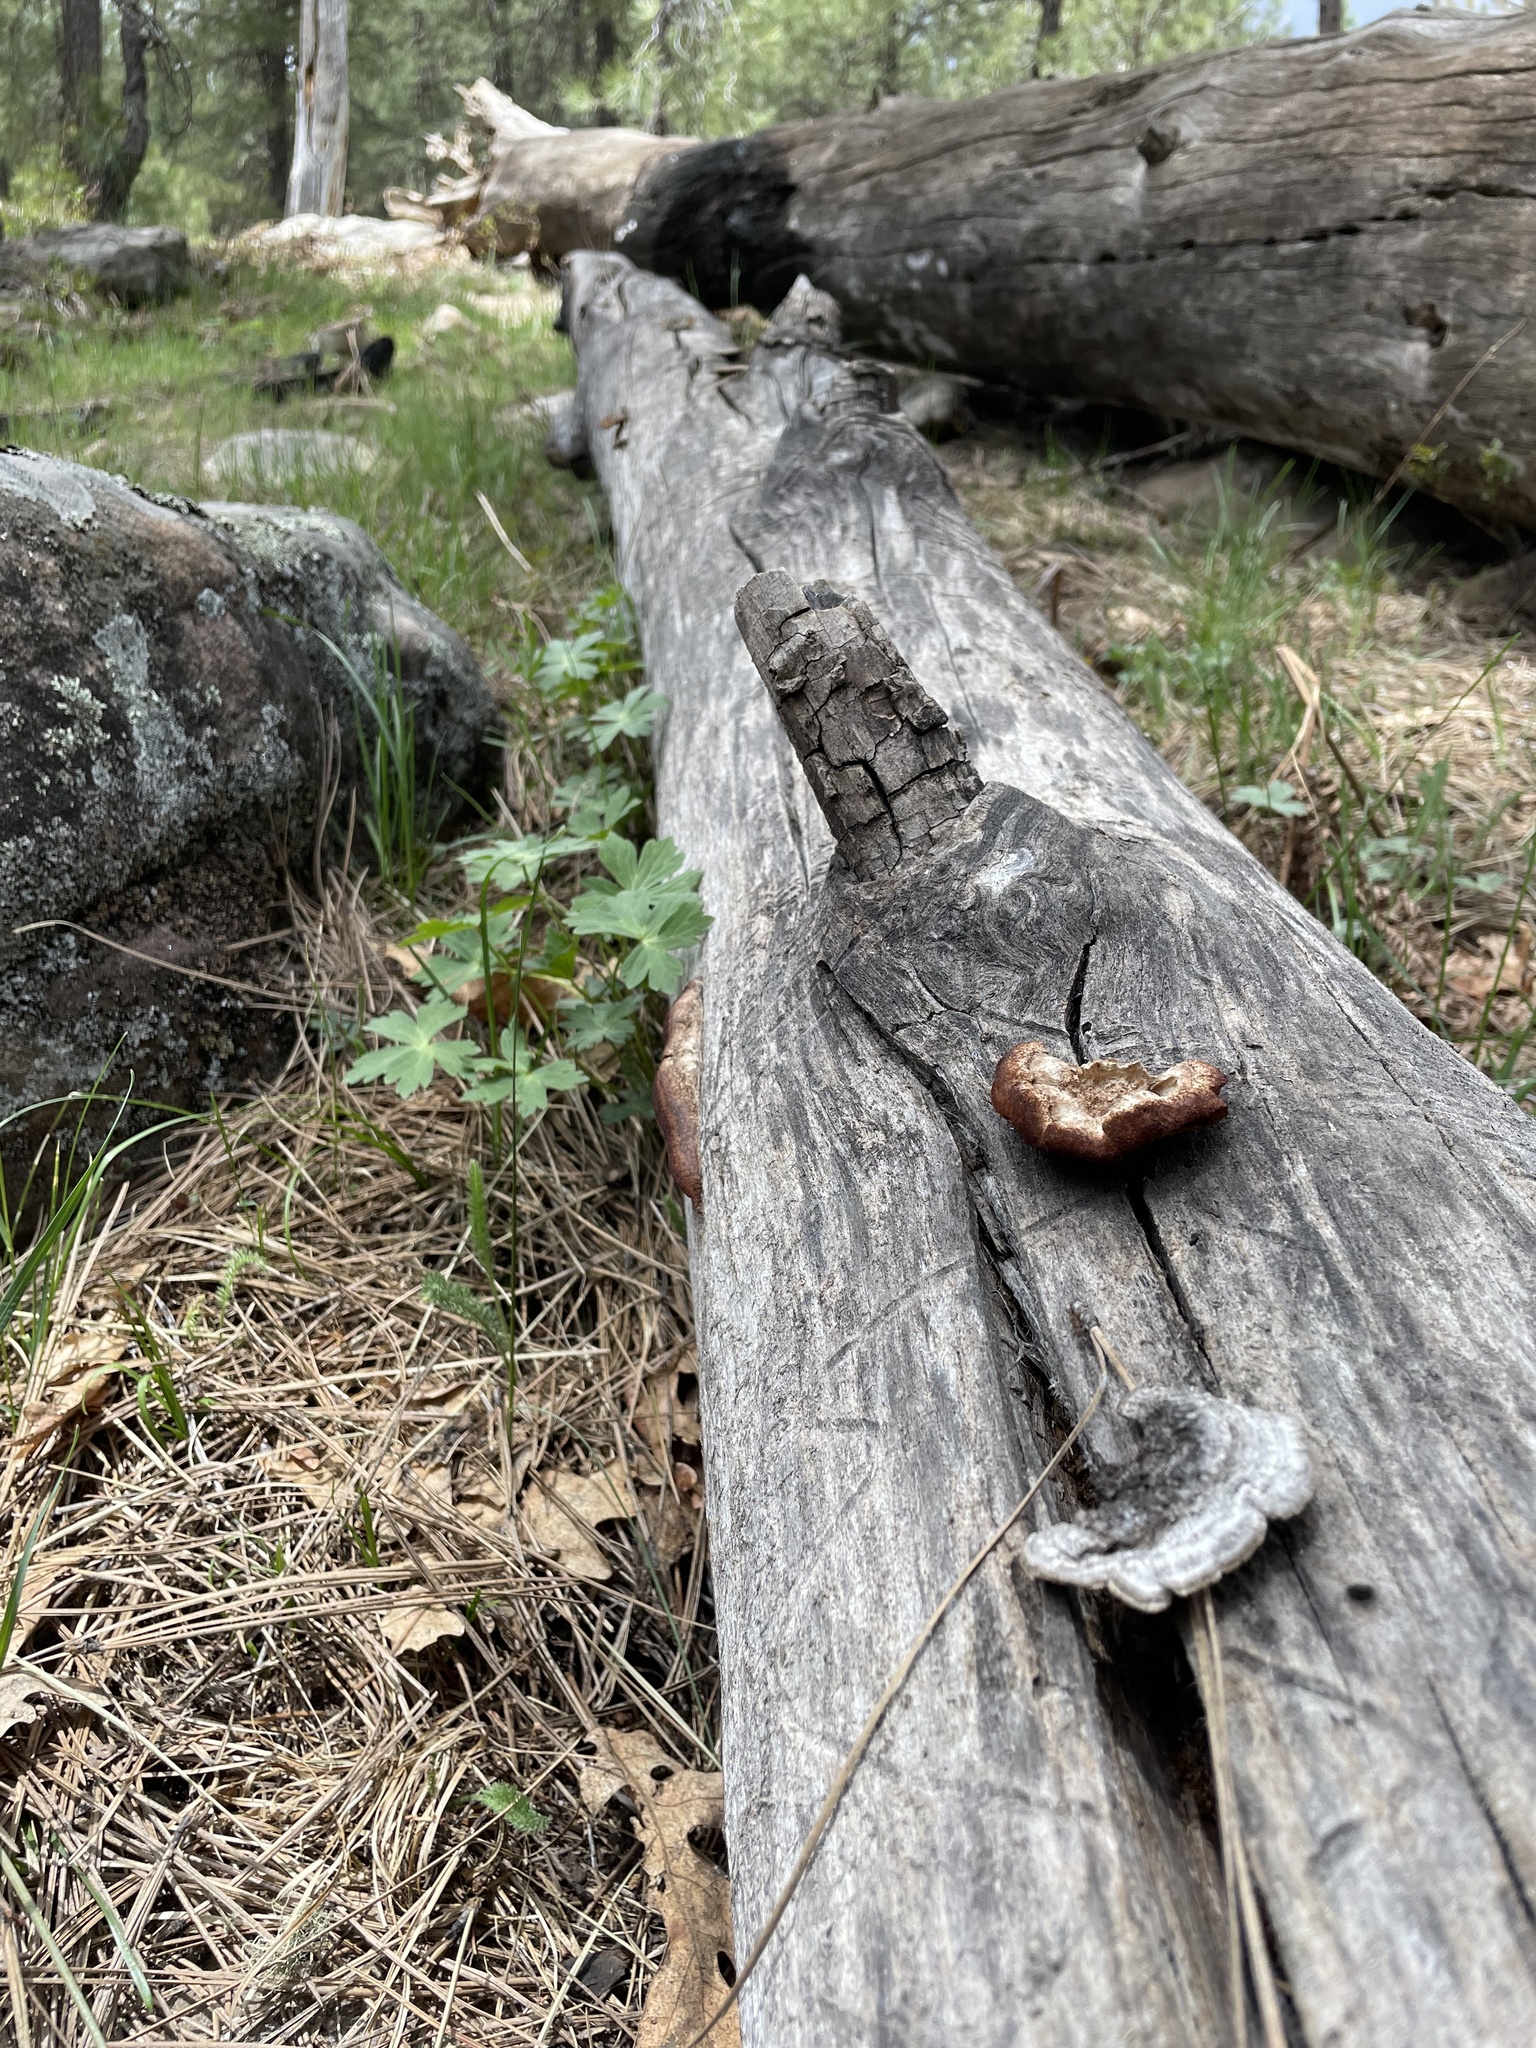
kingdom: Fungi
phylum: Basidiomycota
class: Agaricomycetes
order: Gloeophyllales
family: Gloeophyllaceae
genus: Gloeophyllum
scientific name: Gloeophyllum sepiarium
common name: Conifer mazegill
